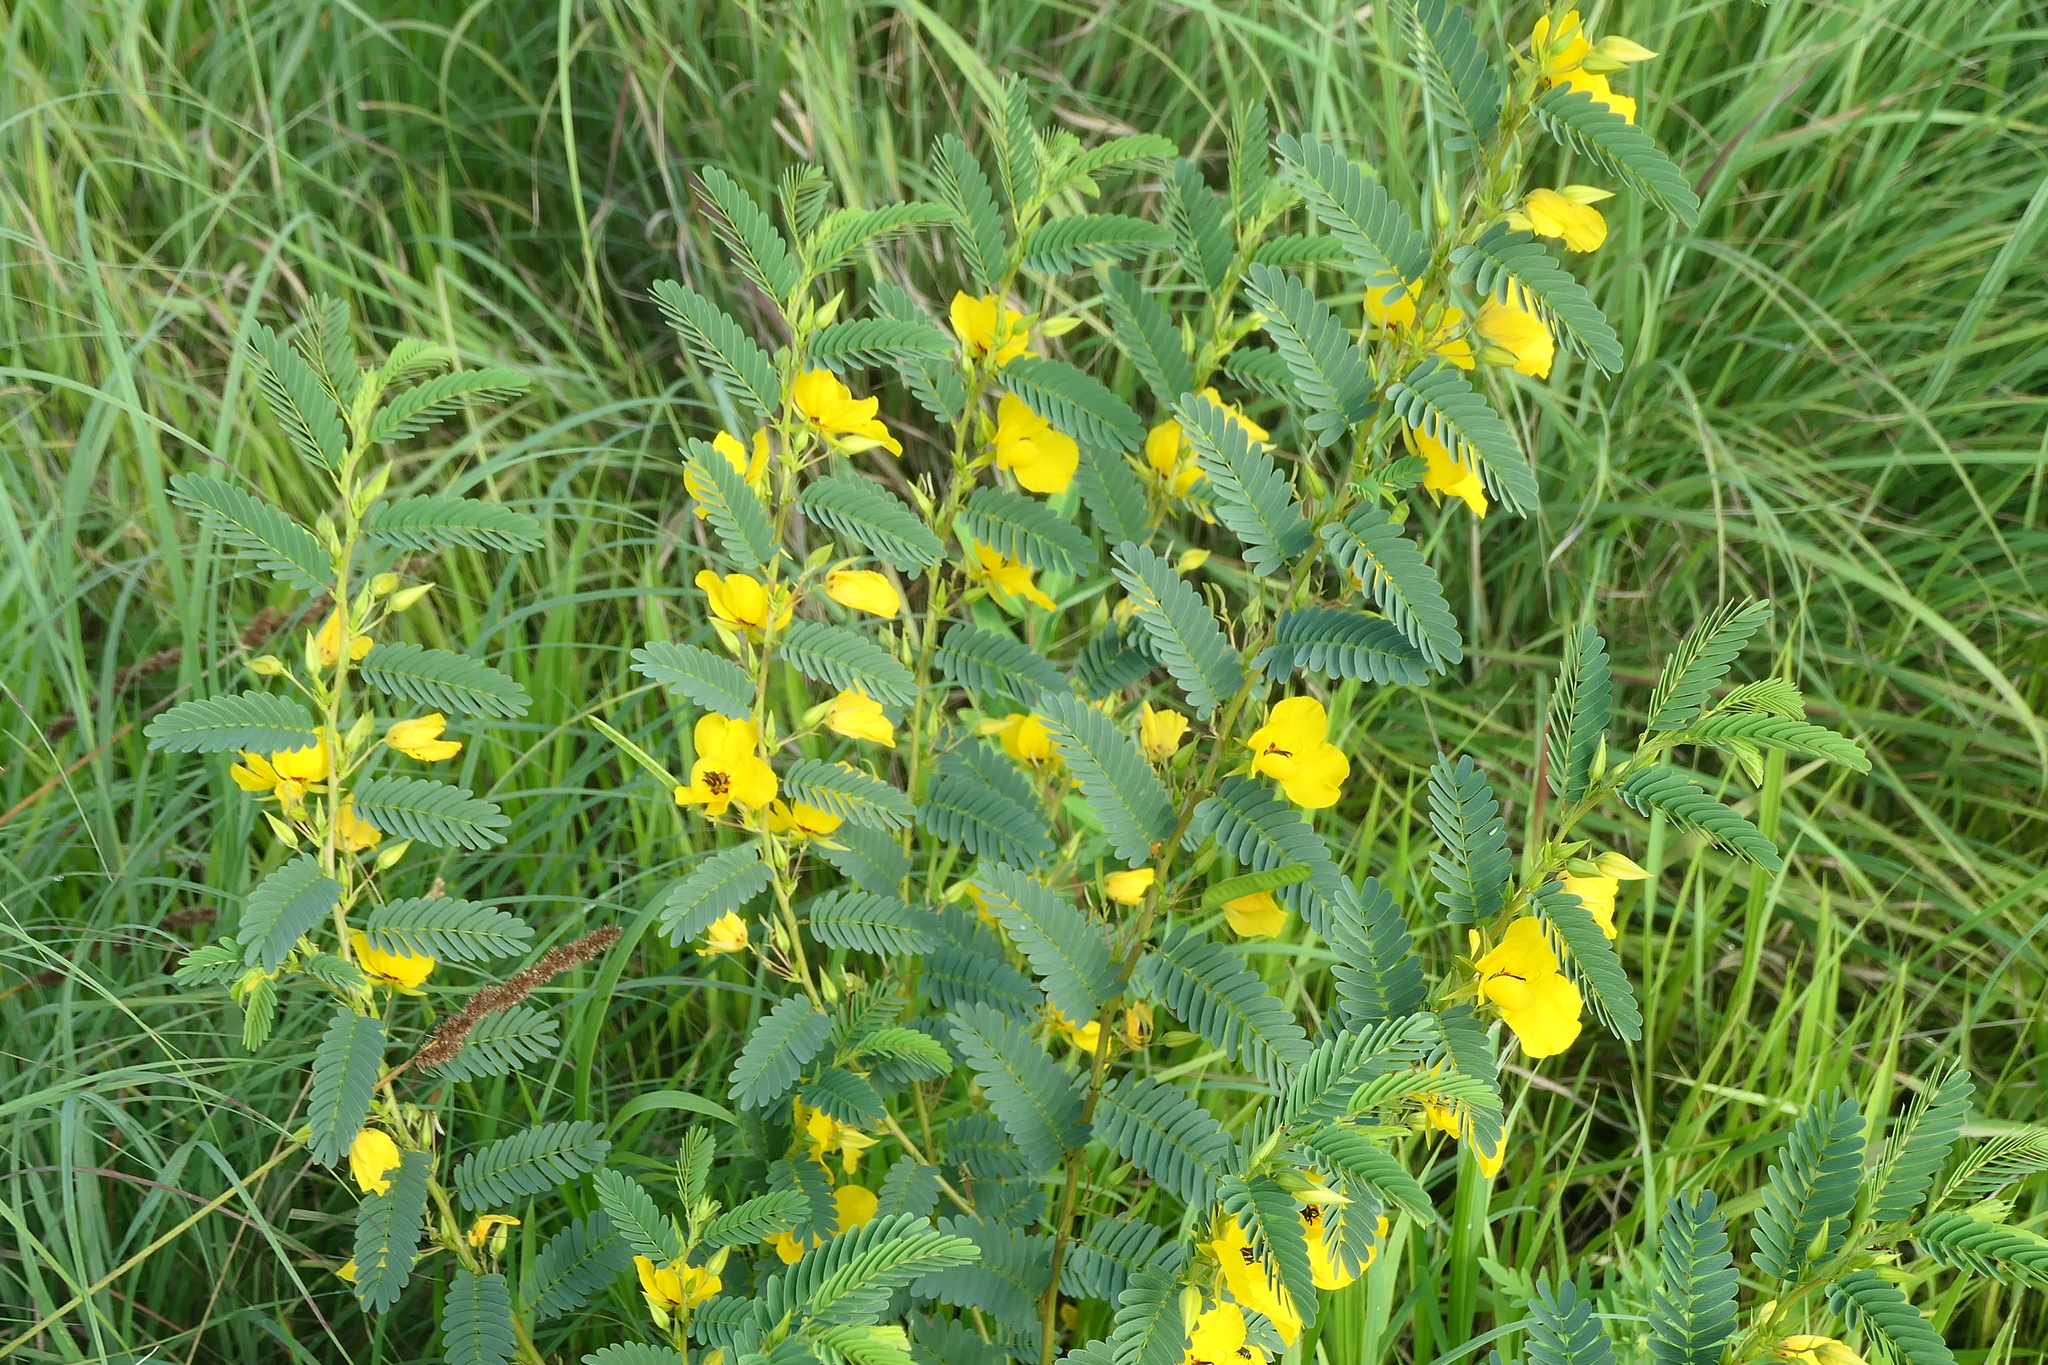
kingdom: Plantae
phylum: Tracheophyta
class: Magnoliopsida
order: Fabales
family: Fabaceae
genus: Chamaecrista
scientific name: Chamaecrista fasciculata
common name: Golden cassia
